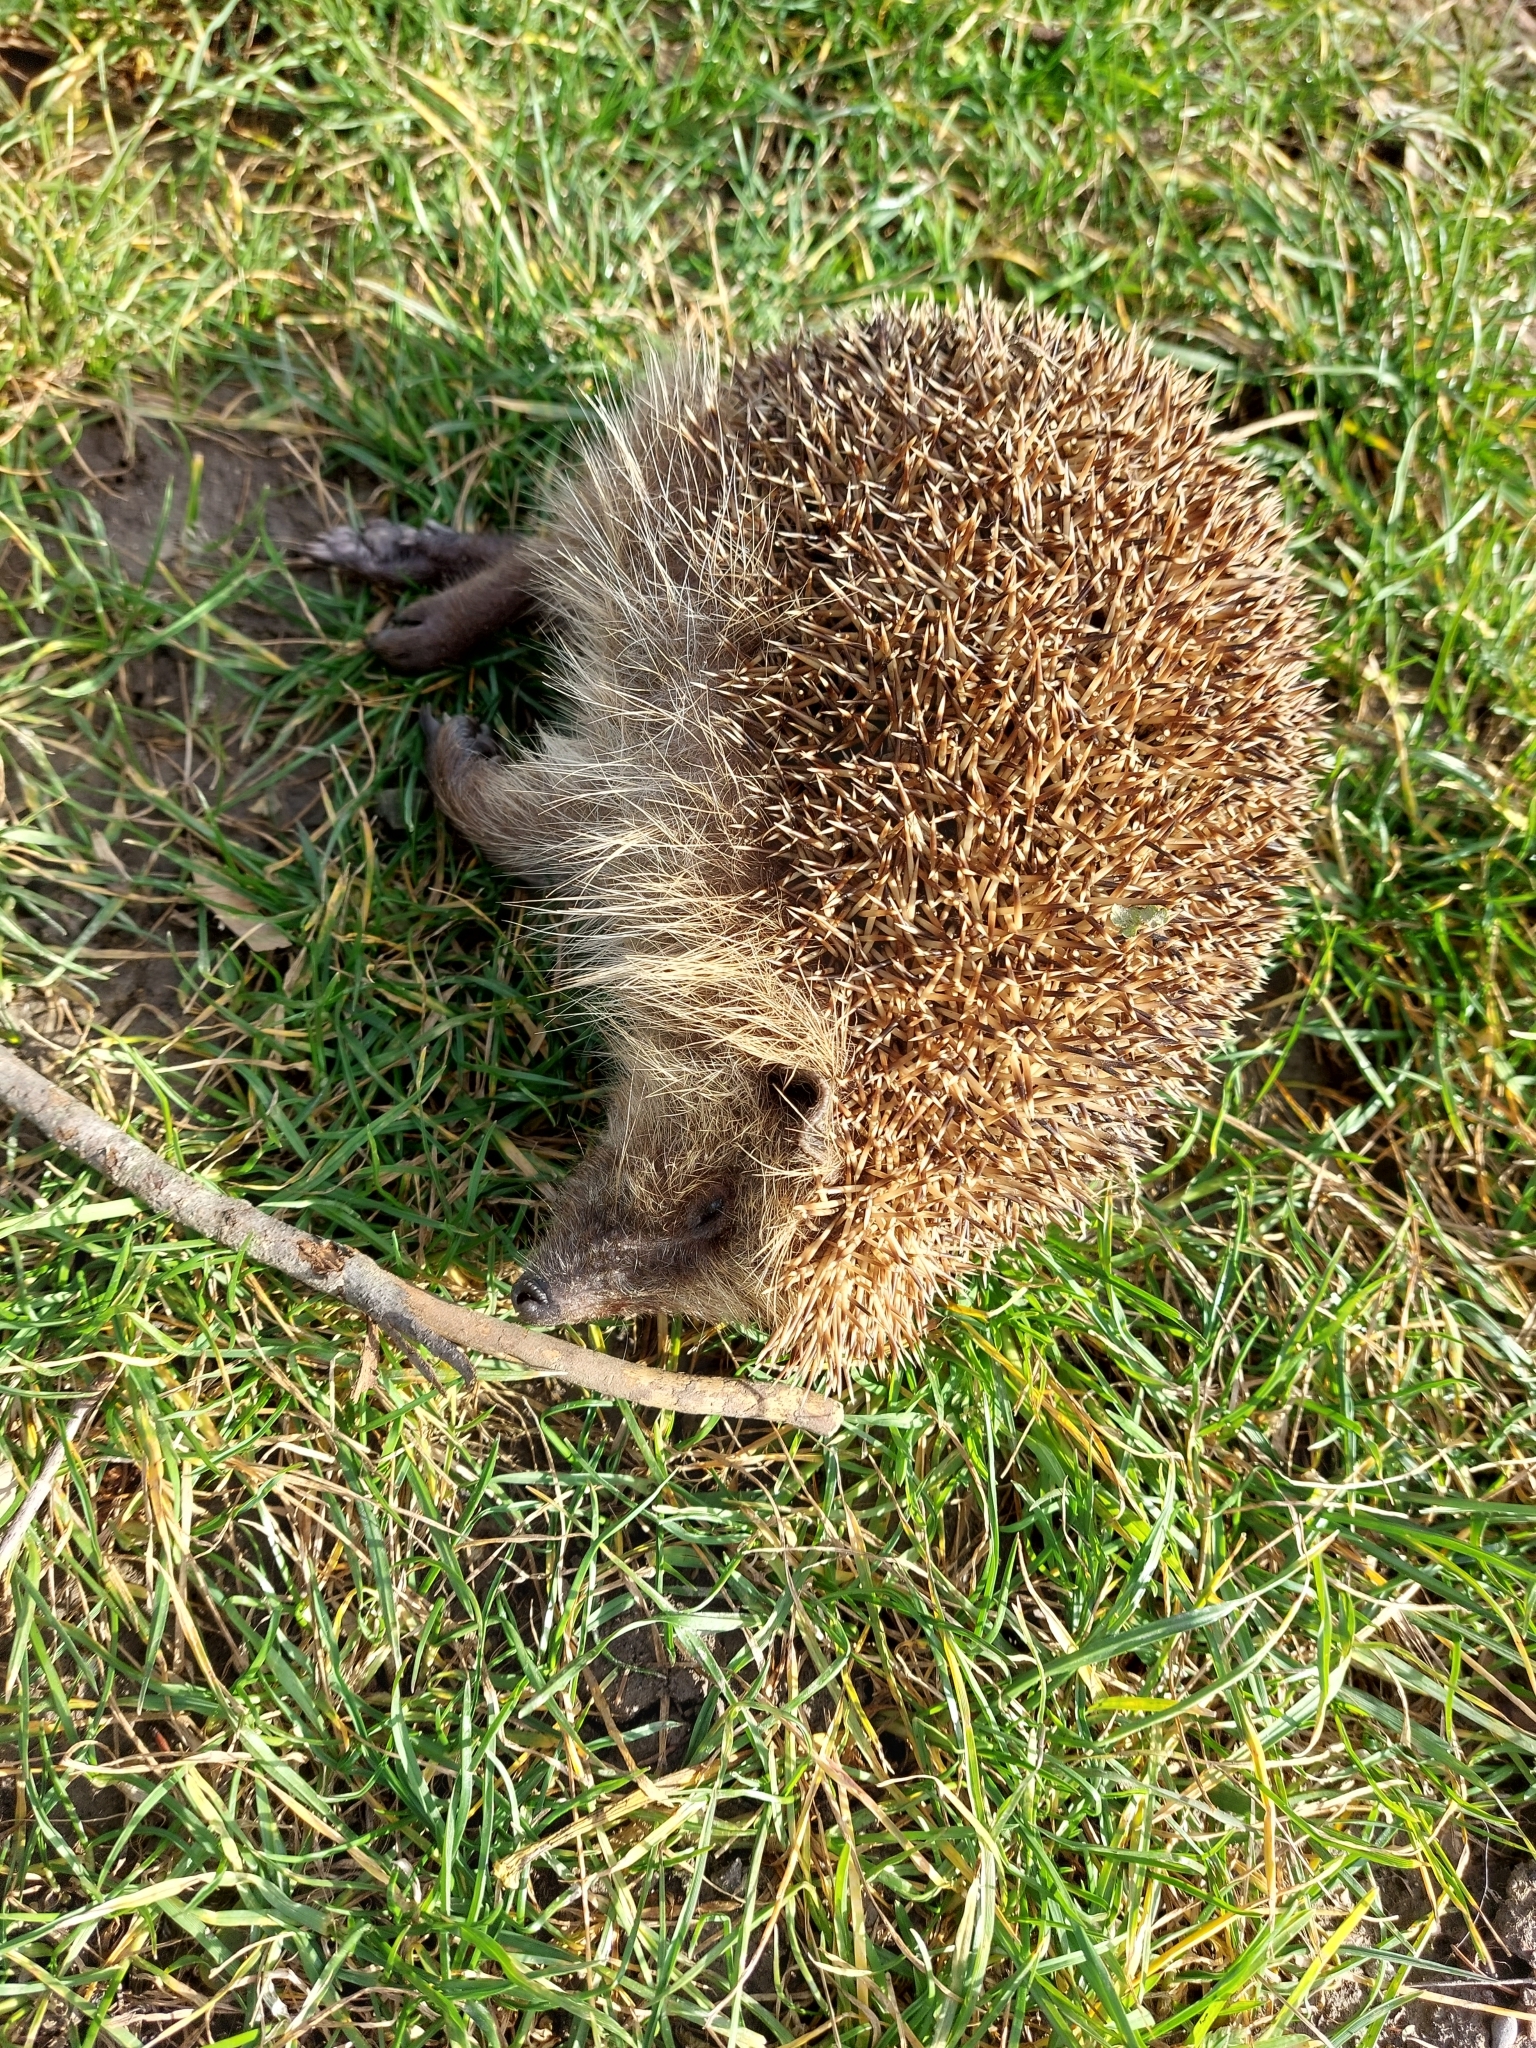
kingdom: Animalia
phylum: Chordata
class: Mammalia
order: Erinaceomorpha
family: Erinaceidae
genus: Erinaceus
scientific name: Erinaceus europaeus
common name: West european hedgehog
